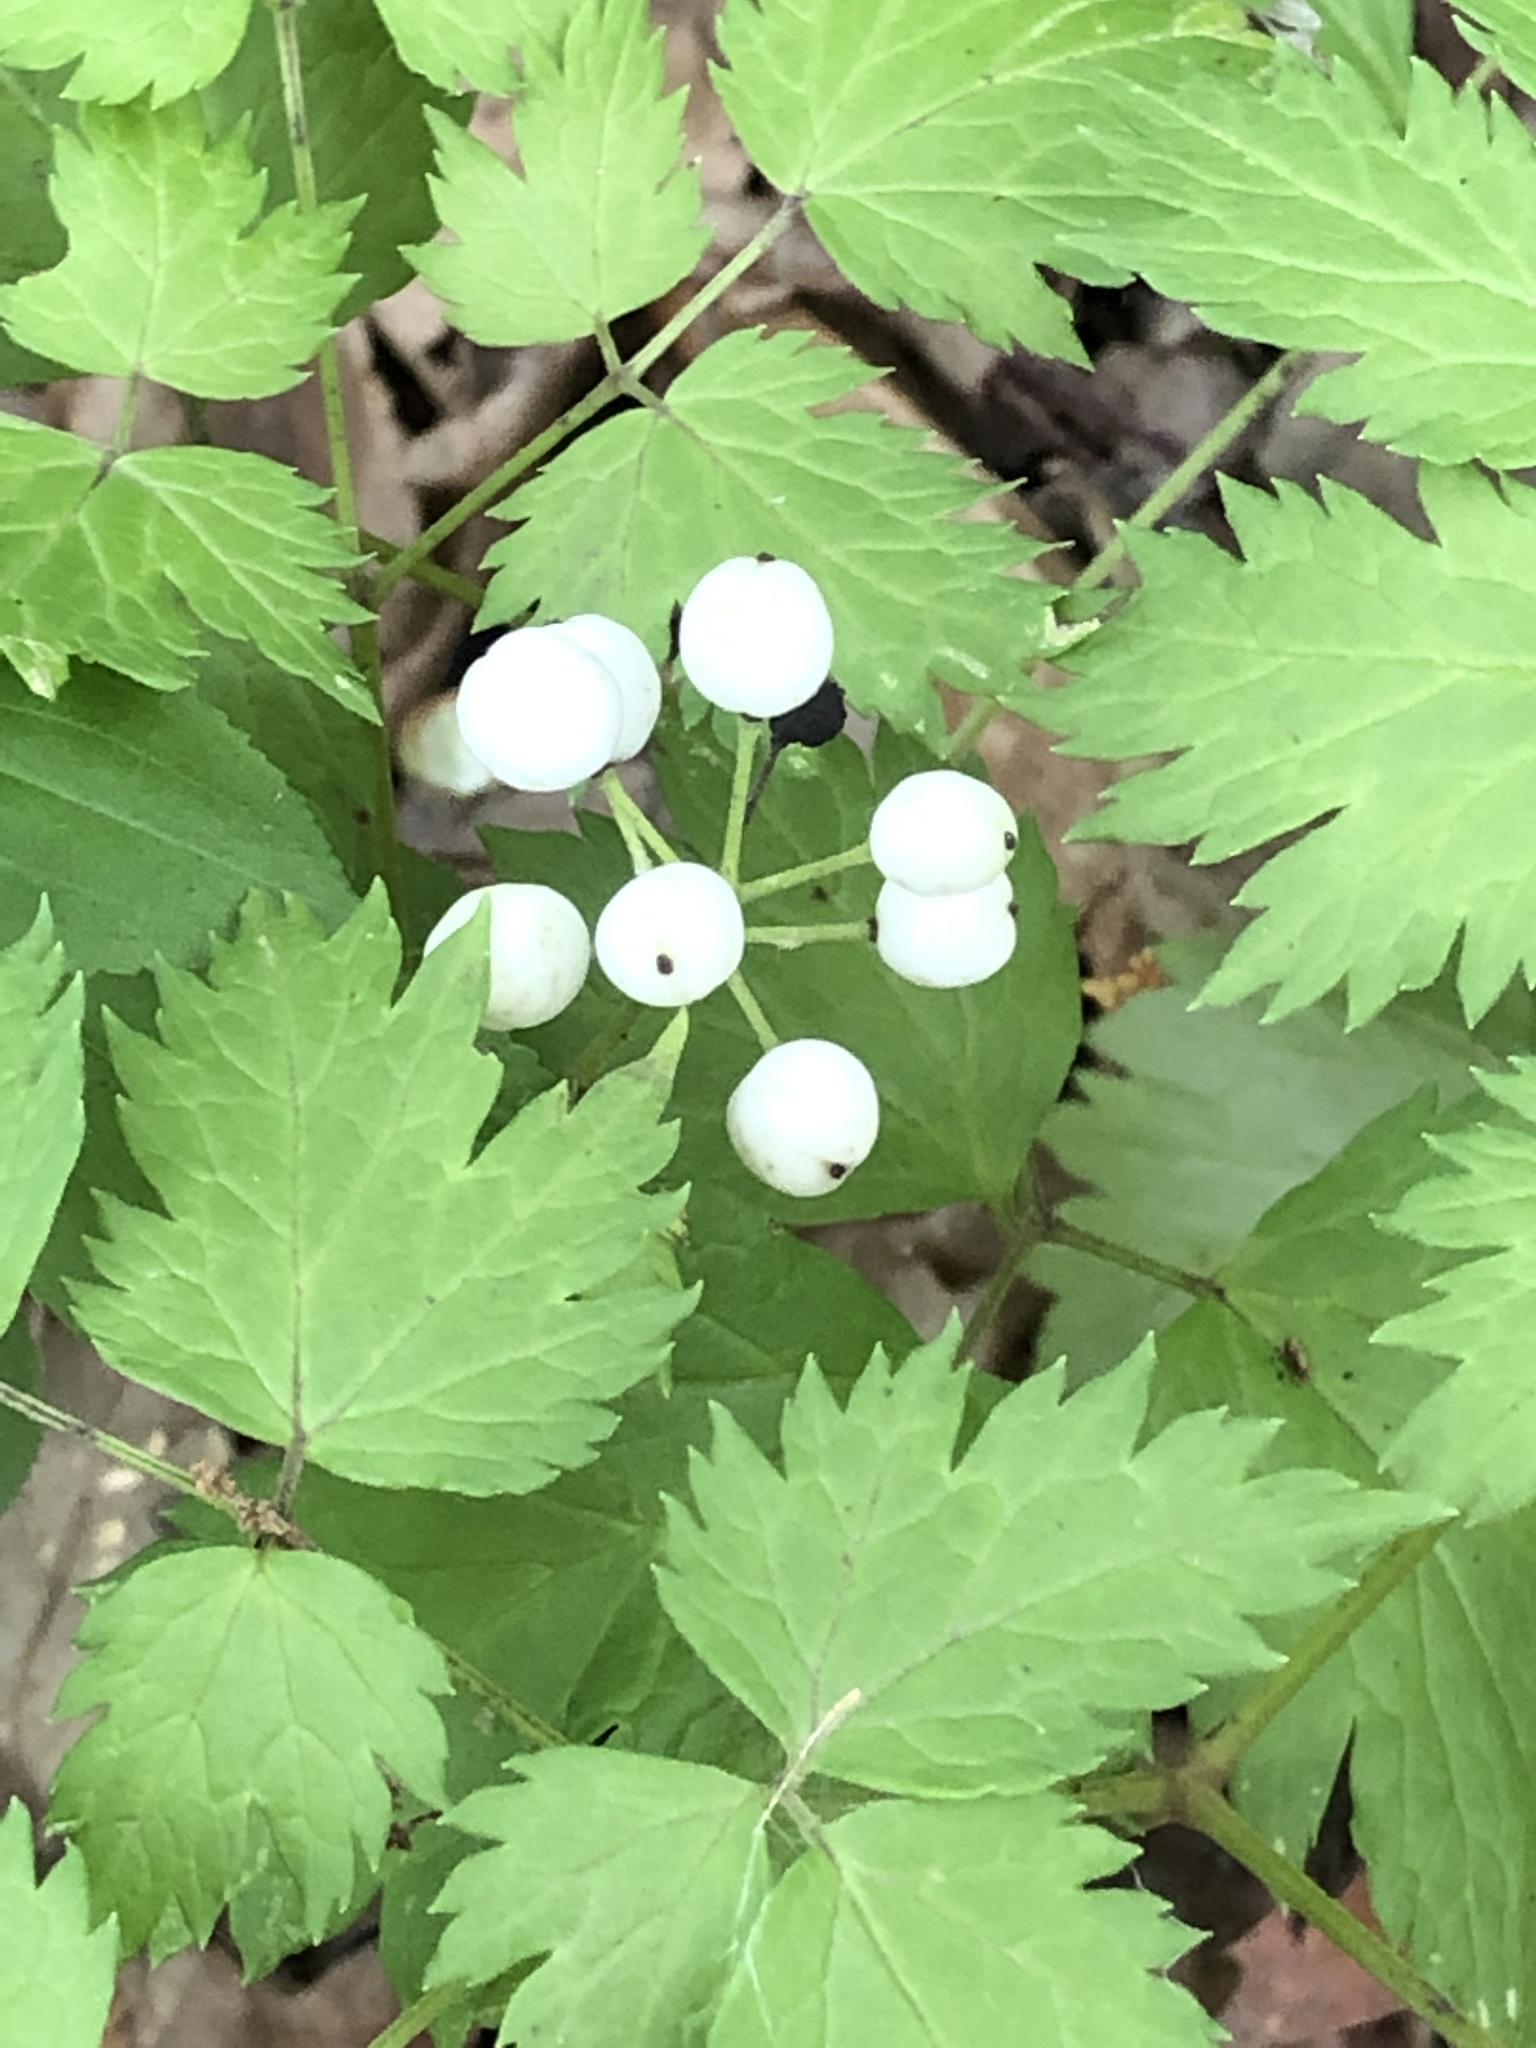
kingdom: Plantae
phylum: Tracheophyta
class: Magnoliopsida
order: Ranunculales
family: Ranunculaceae
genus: Actaea
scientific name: Actaea rubra
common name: Red baneberry
